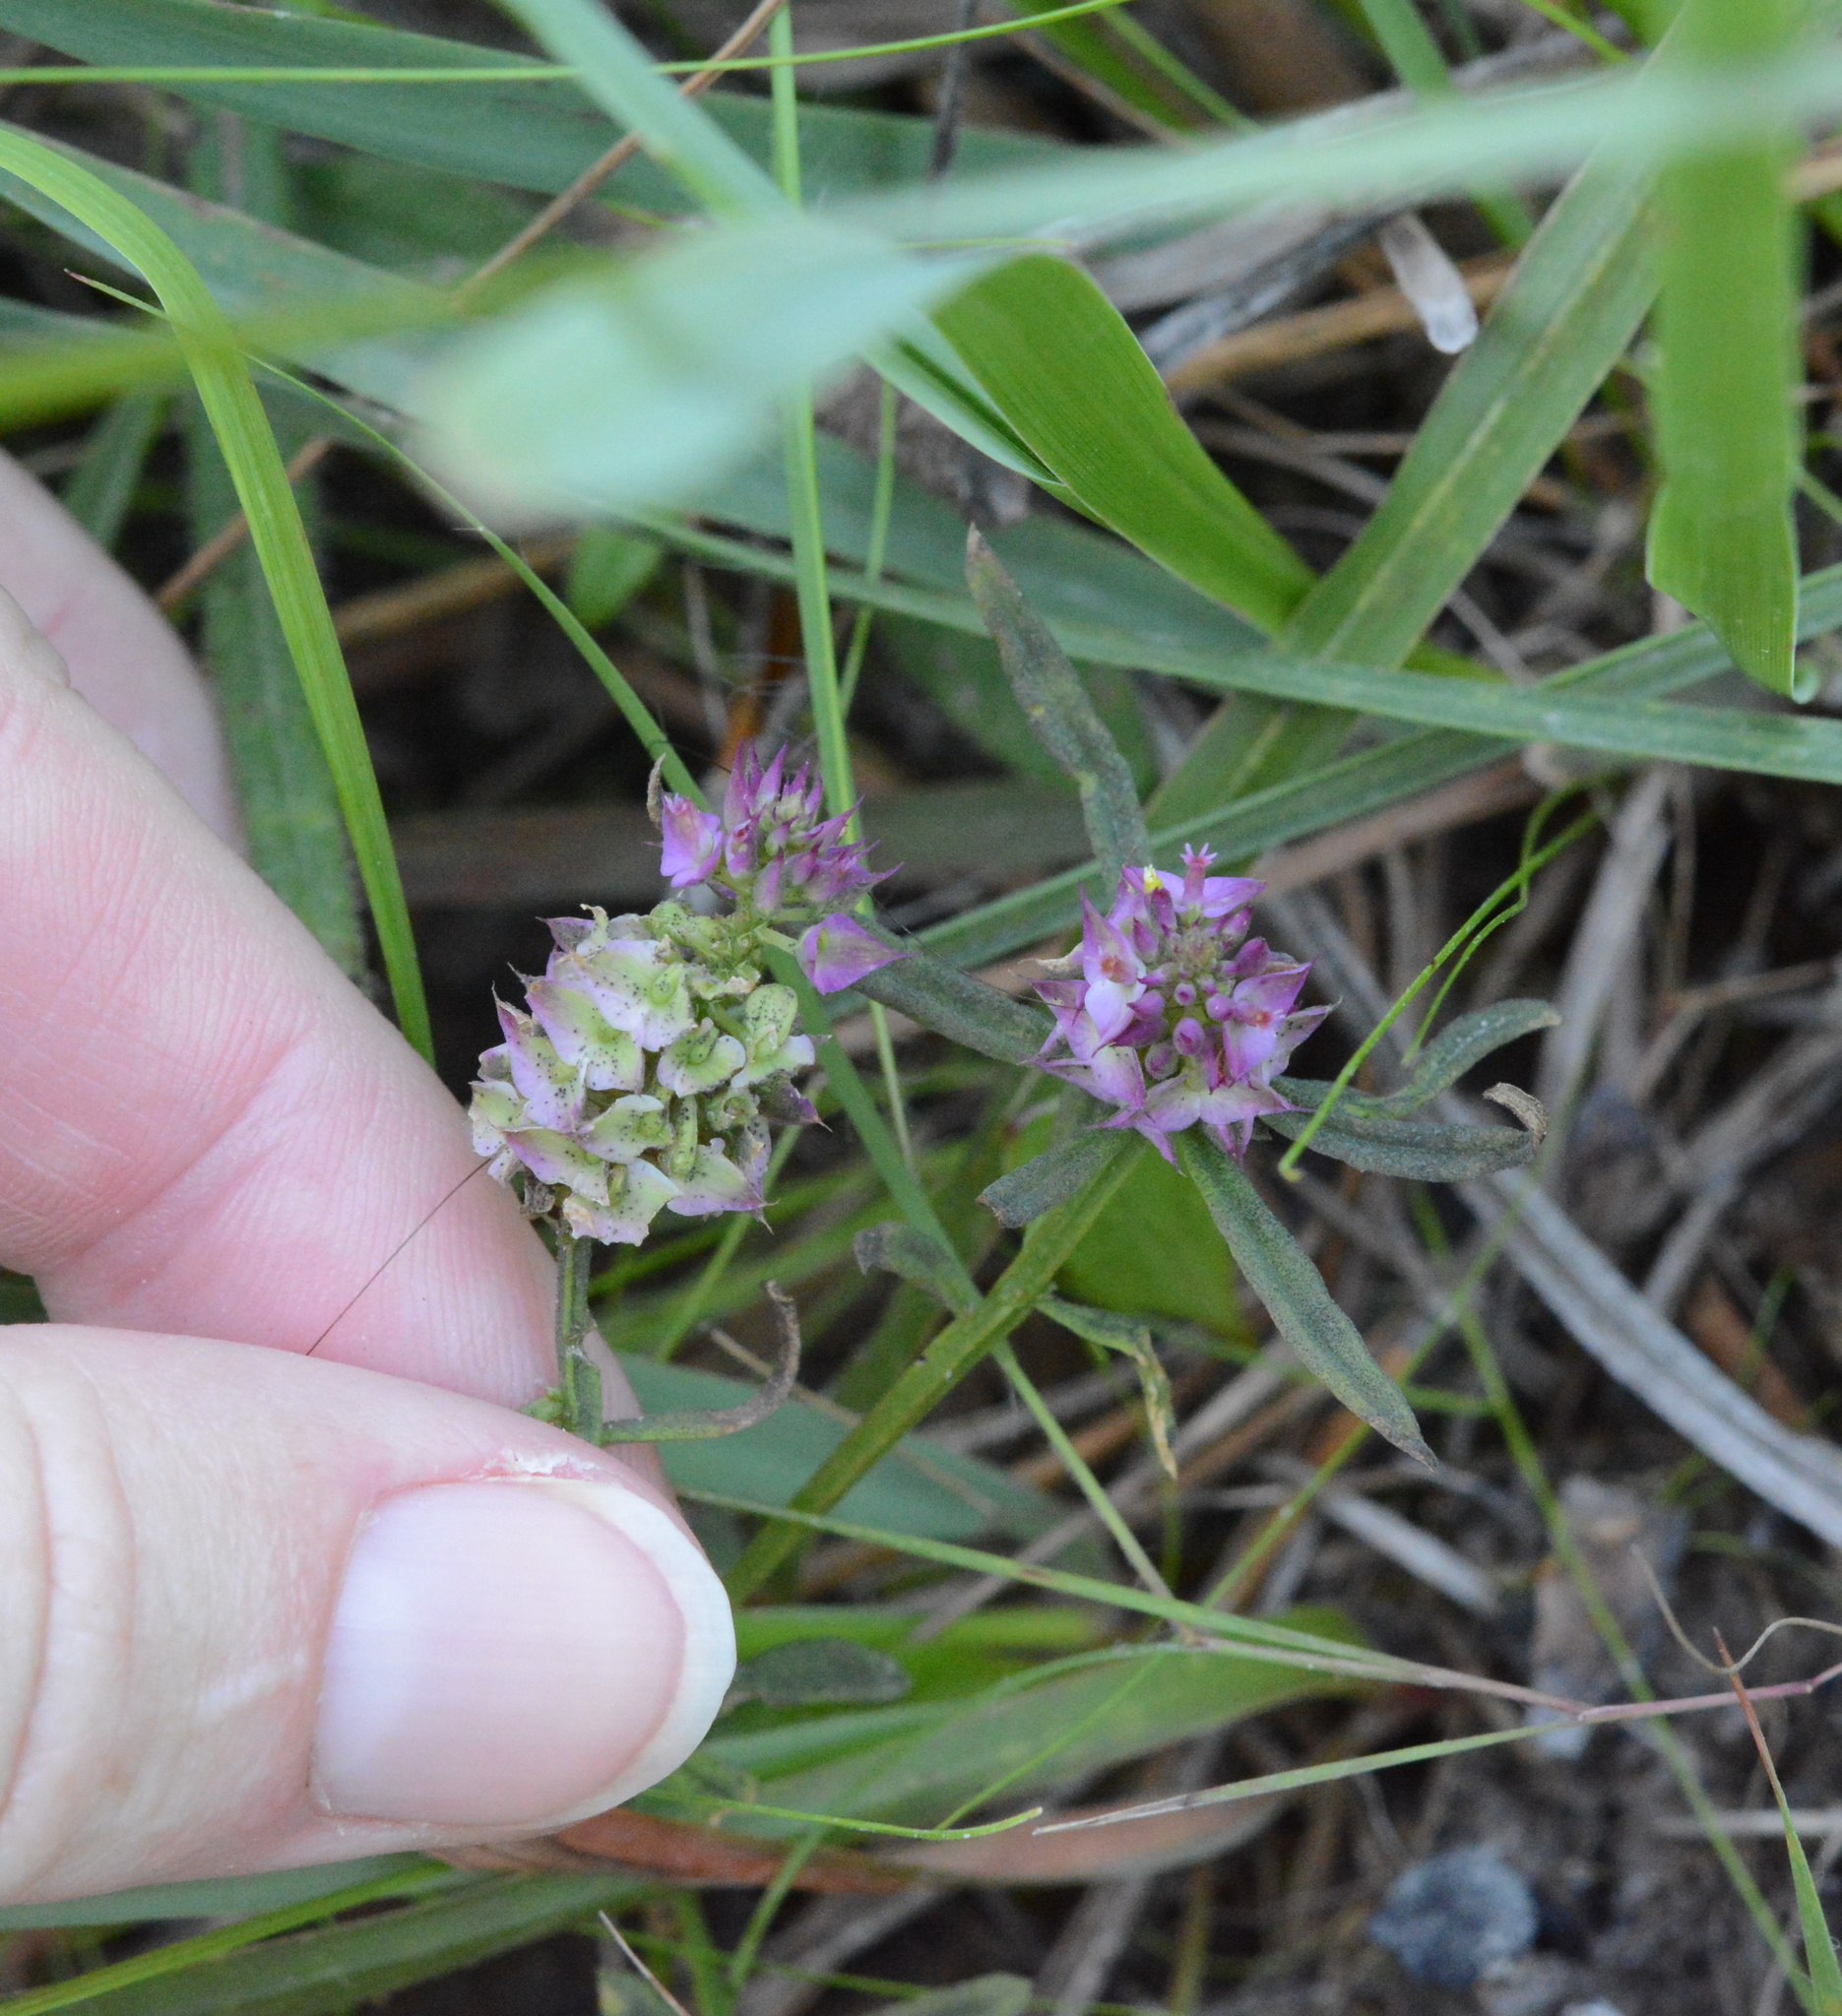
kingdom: Plantae
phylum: Tracheophyta
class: Magnoliopsida
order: Fabales
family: Polygalaceae
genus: Polygala
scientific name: Polygala cruciata
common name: Drumheads
